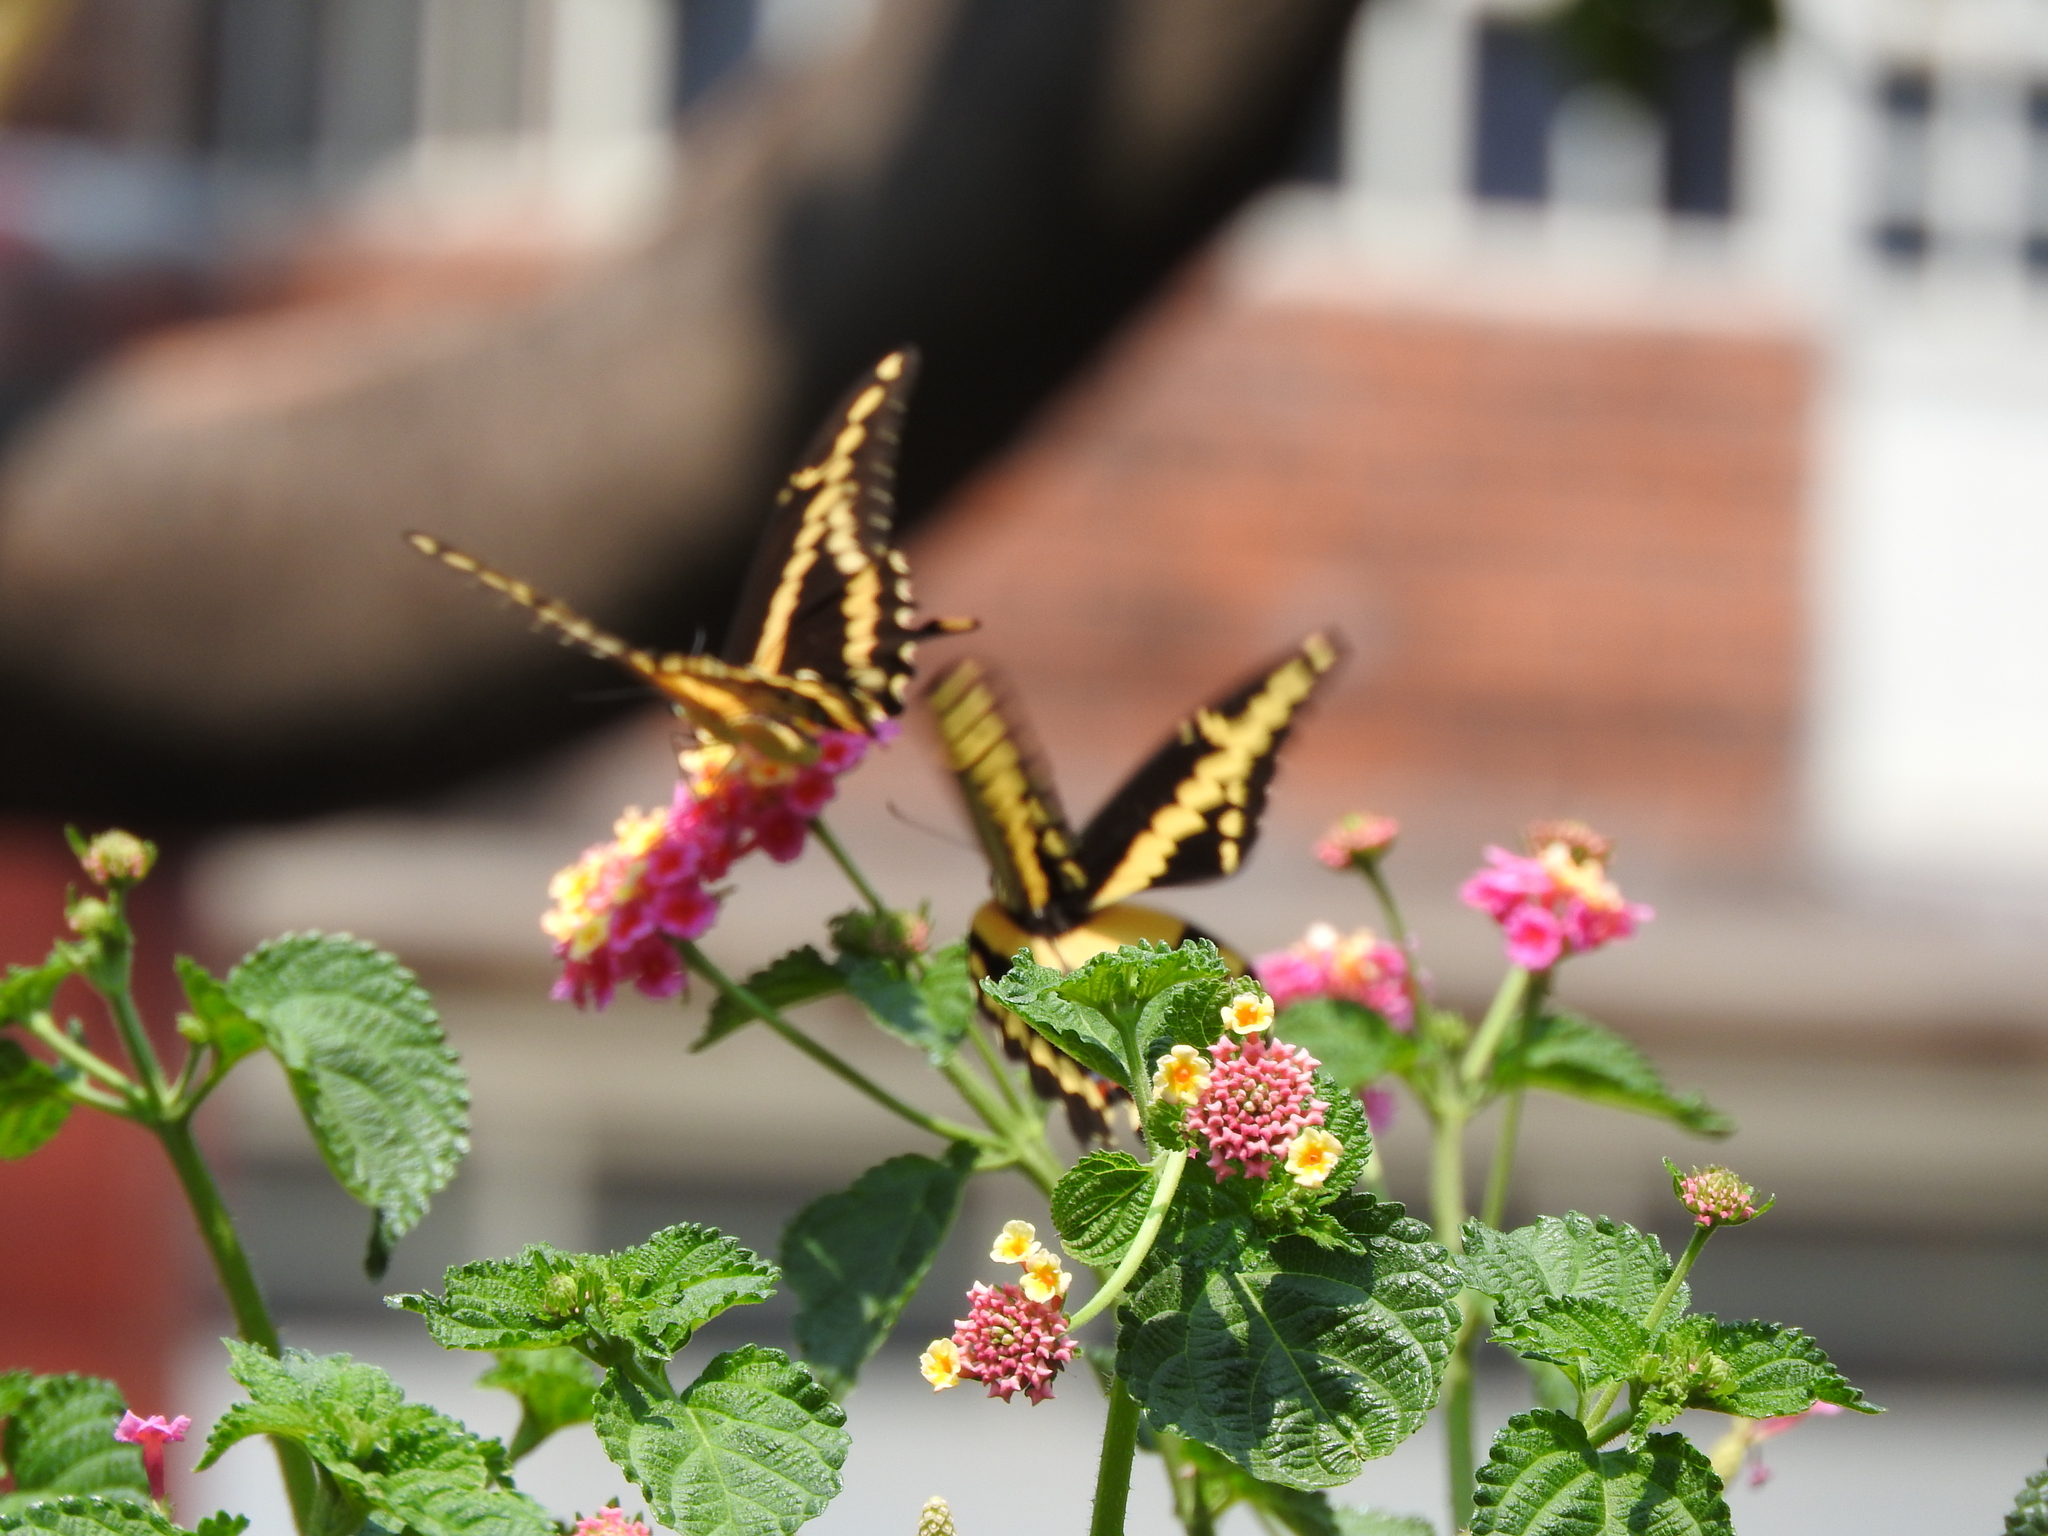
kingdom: Animalia
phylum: Arthropoda
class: Insecta
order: Lepidoptera
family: Papilionidae
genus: Papilio
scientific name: Papilio rumiko
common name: Western giant swallowtail
